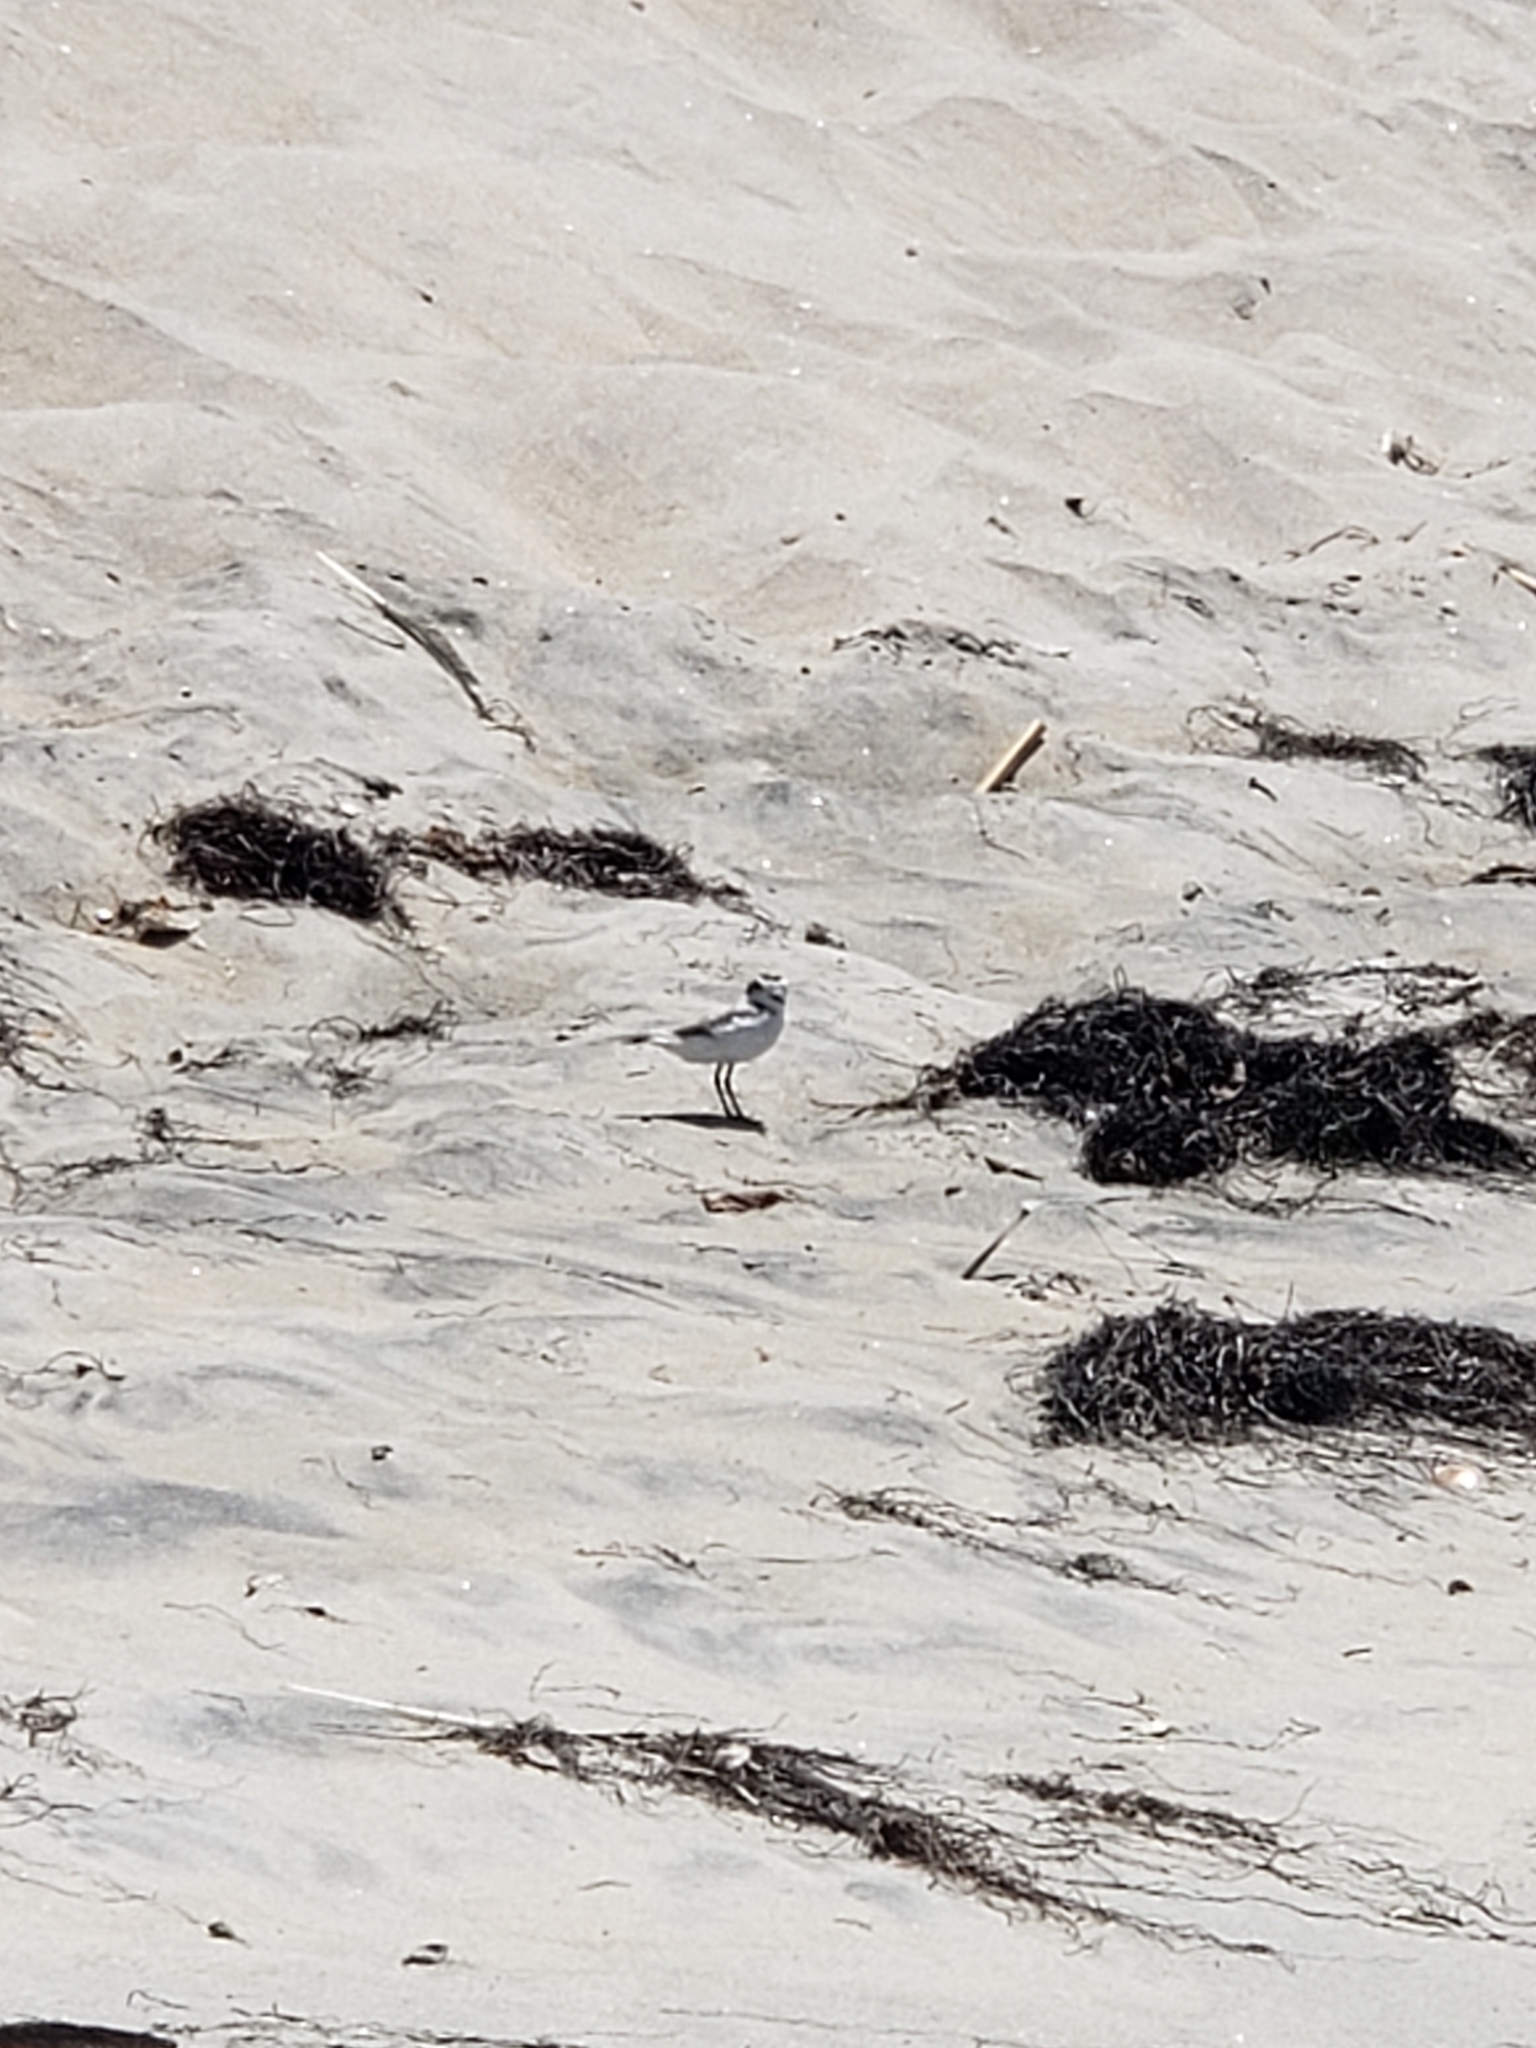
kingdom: Animalia
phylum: Chordata
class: Aves
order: Charadriiformes
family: Charadriidae
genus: Anarhynchus
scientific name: Anarhynchus
